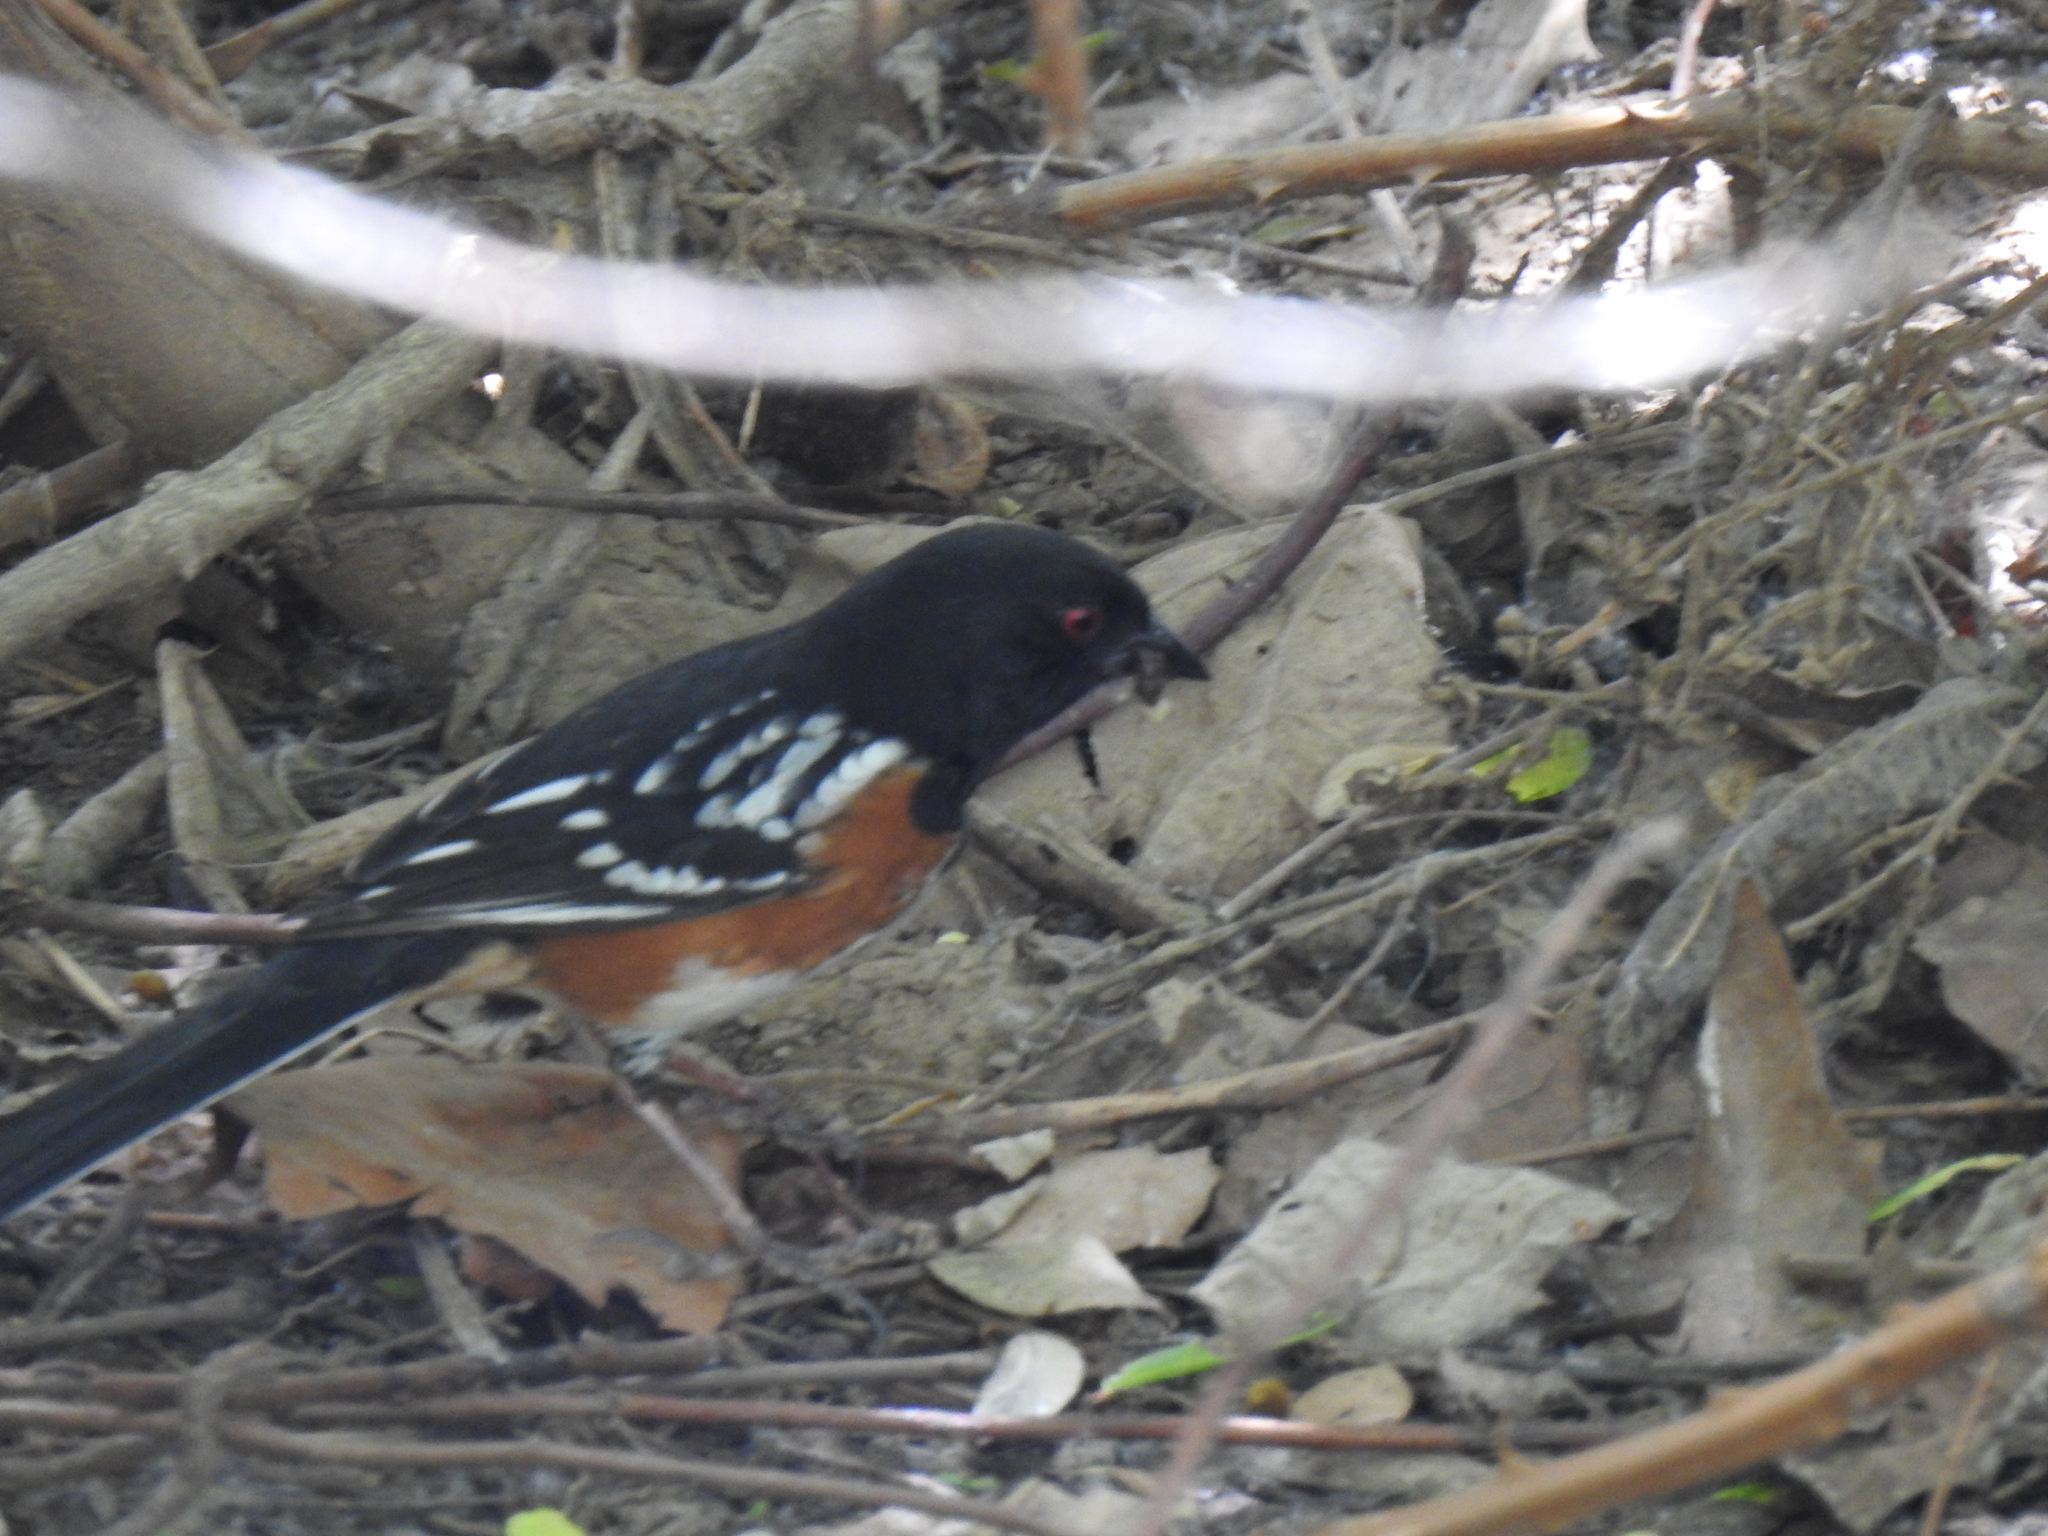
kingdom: Animalia
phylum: Chordata
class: Aves
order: Passeriformes
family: Passerellidae
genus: Pipilo
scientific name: Pipilo maculatus
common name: Spotted towhee
